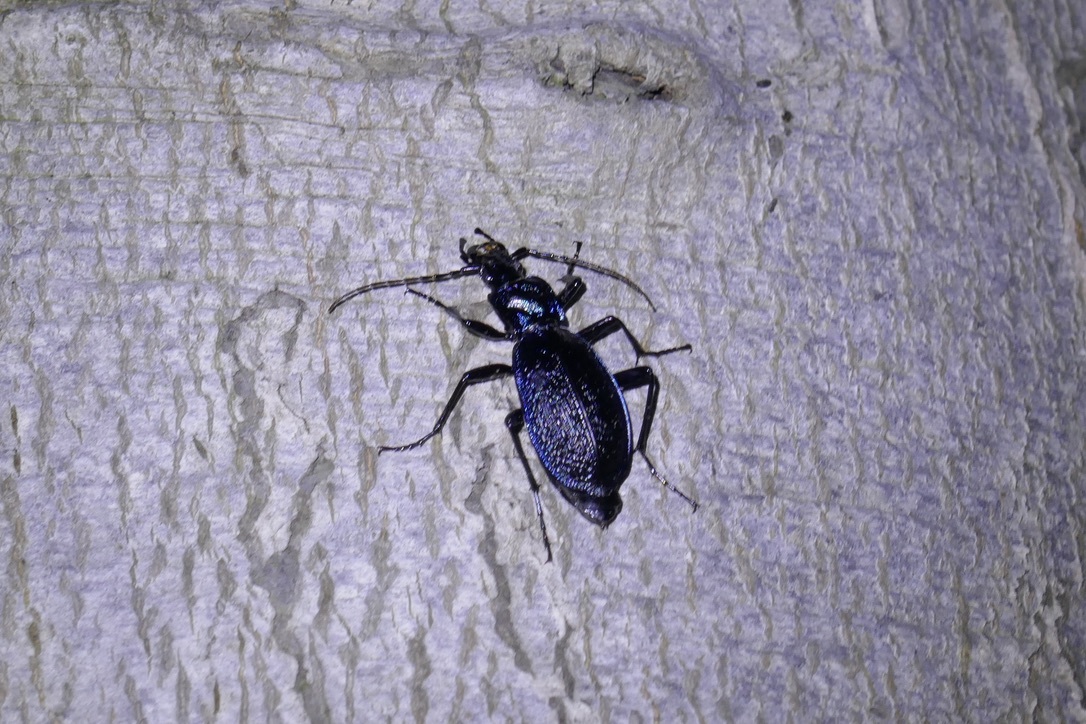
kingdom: Animalia
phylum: Arthropoda
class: Insecta
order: Coleoptera
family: Carabidae
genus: Carabus
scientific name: Carabus intricatus
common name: Blue ground beetle
